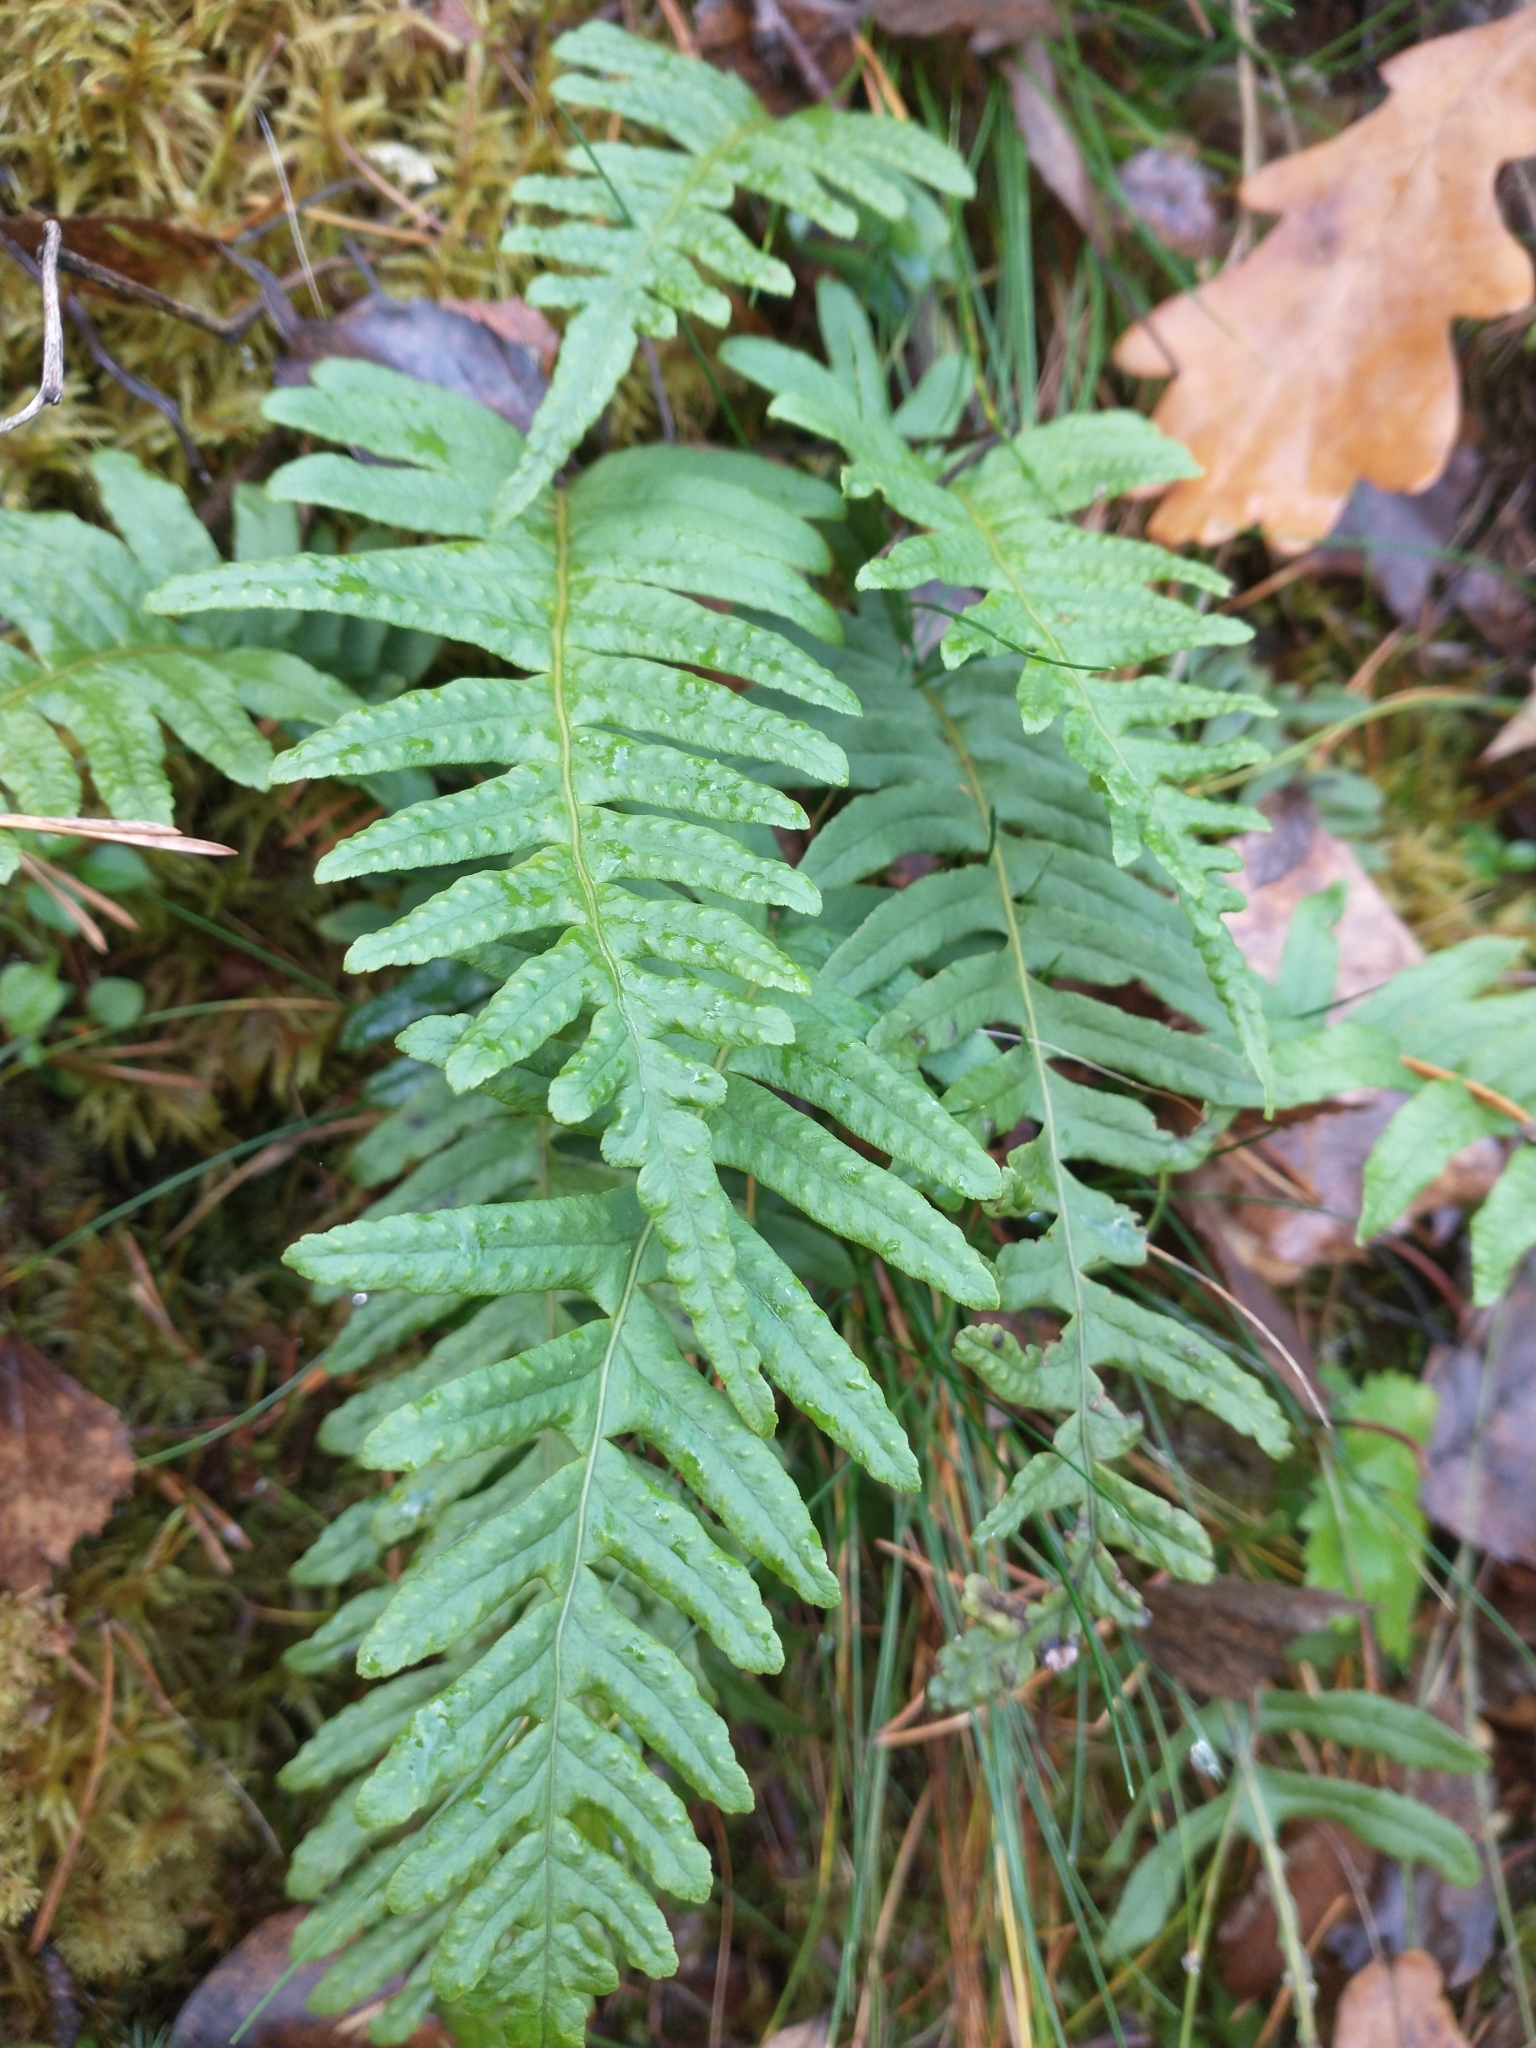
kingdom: Plantae
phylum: Tracheophyta
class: Polypodiopsida
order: Polypodiales
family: Polypodiaceae
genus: Polypodium
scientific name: Polypodium vulgare
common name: Common polypody
